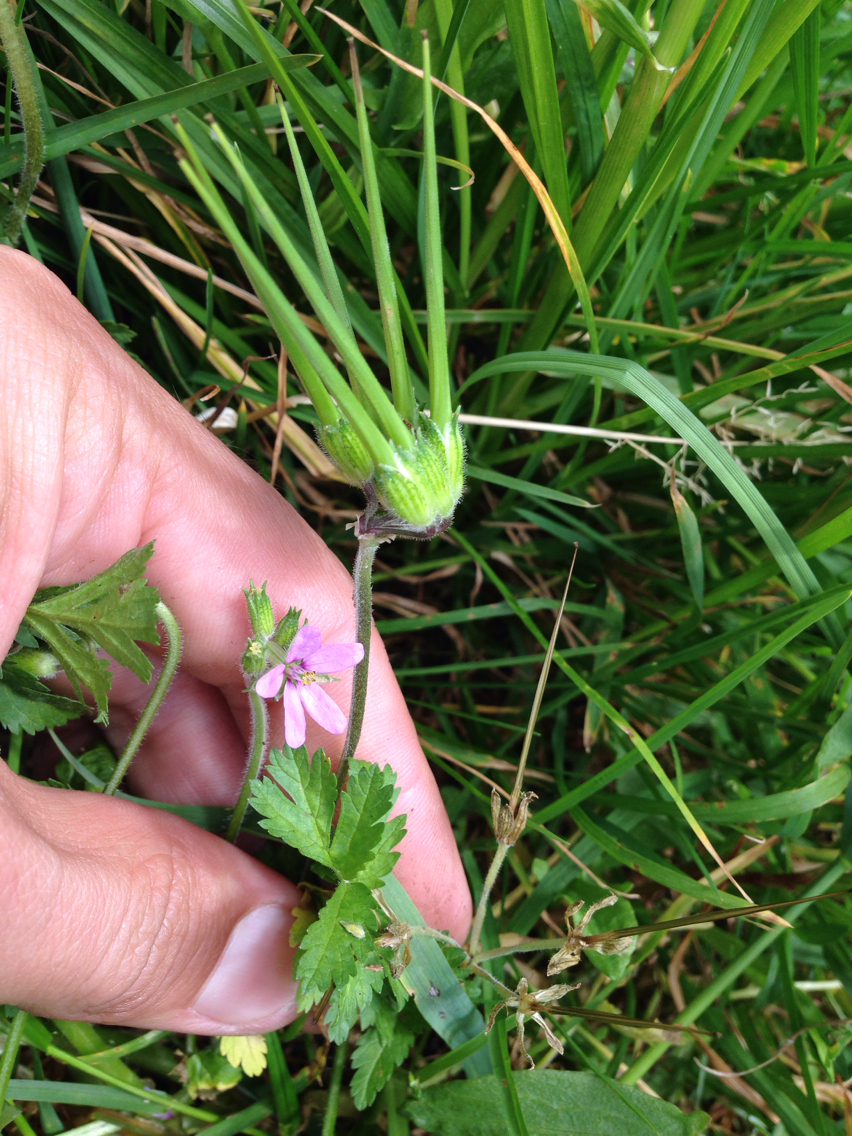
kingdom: Plantae
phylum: Tracheophyta
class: Magnoliopsida
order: Geraniales
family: Geraniaceae
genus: Erodium
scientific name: Erodium moschatum
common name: Musk stork's-bill
